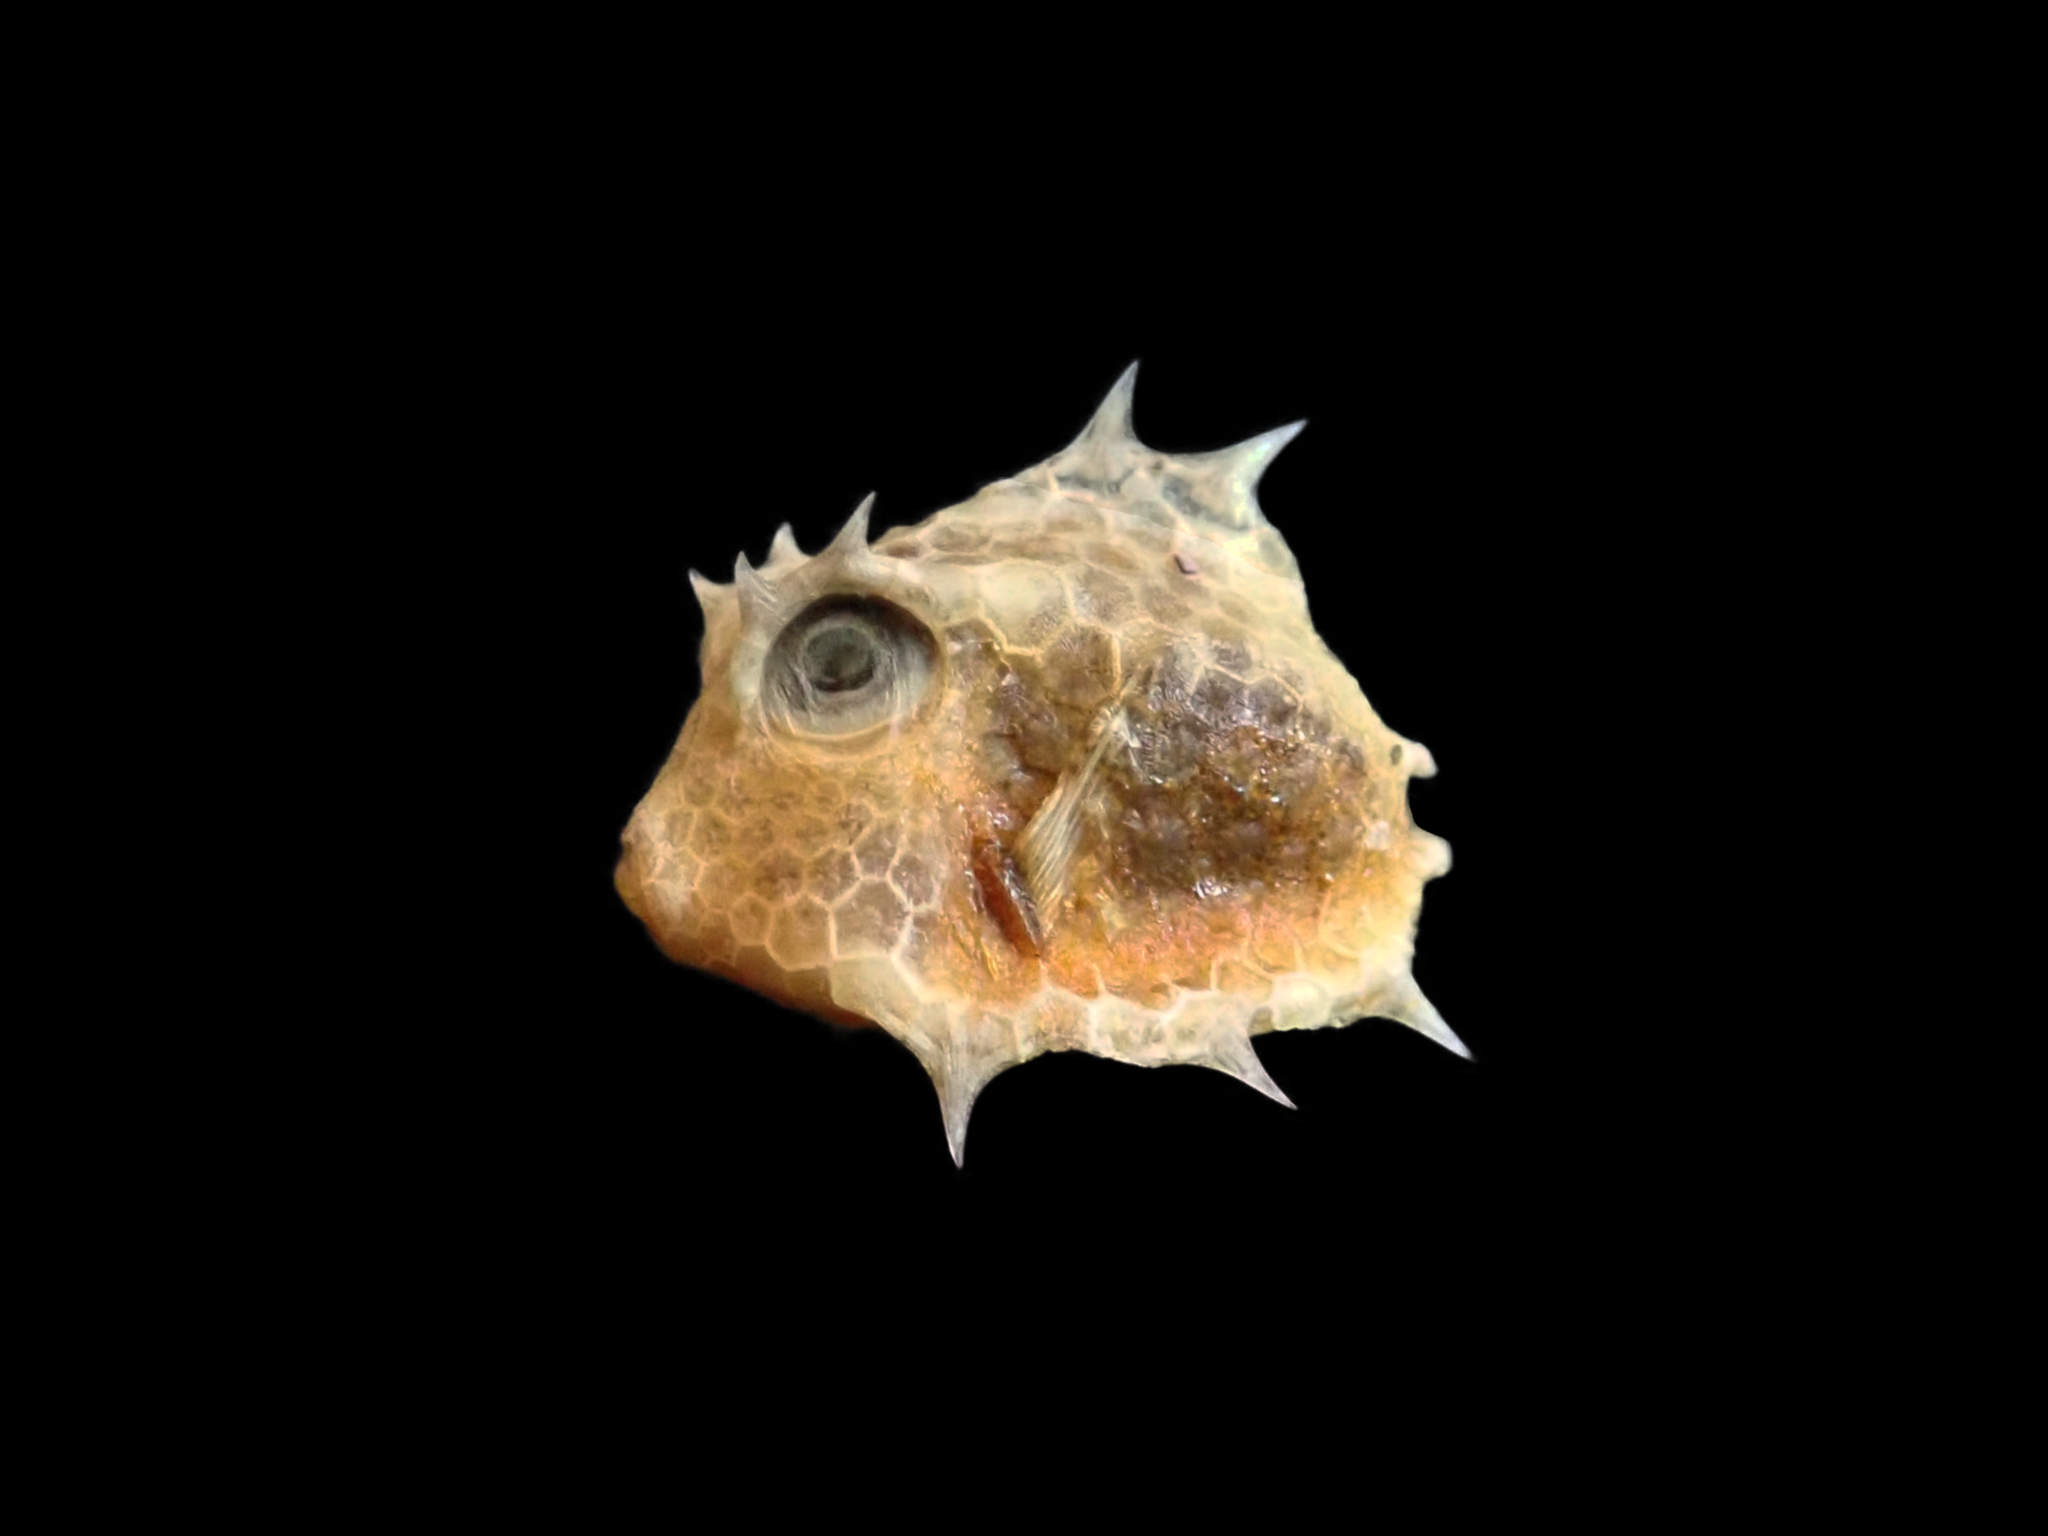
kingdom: Animalia
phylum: Chordata
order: Tetraodontiformes
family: Ostraciidae
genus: Tetrosomus
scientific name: Tetrosomus reipublicae
